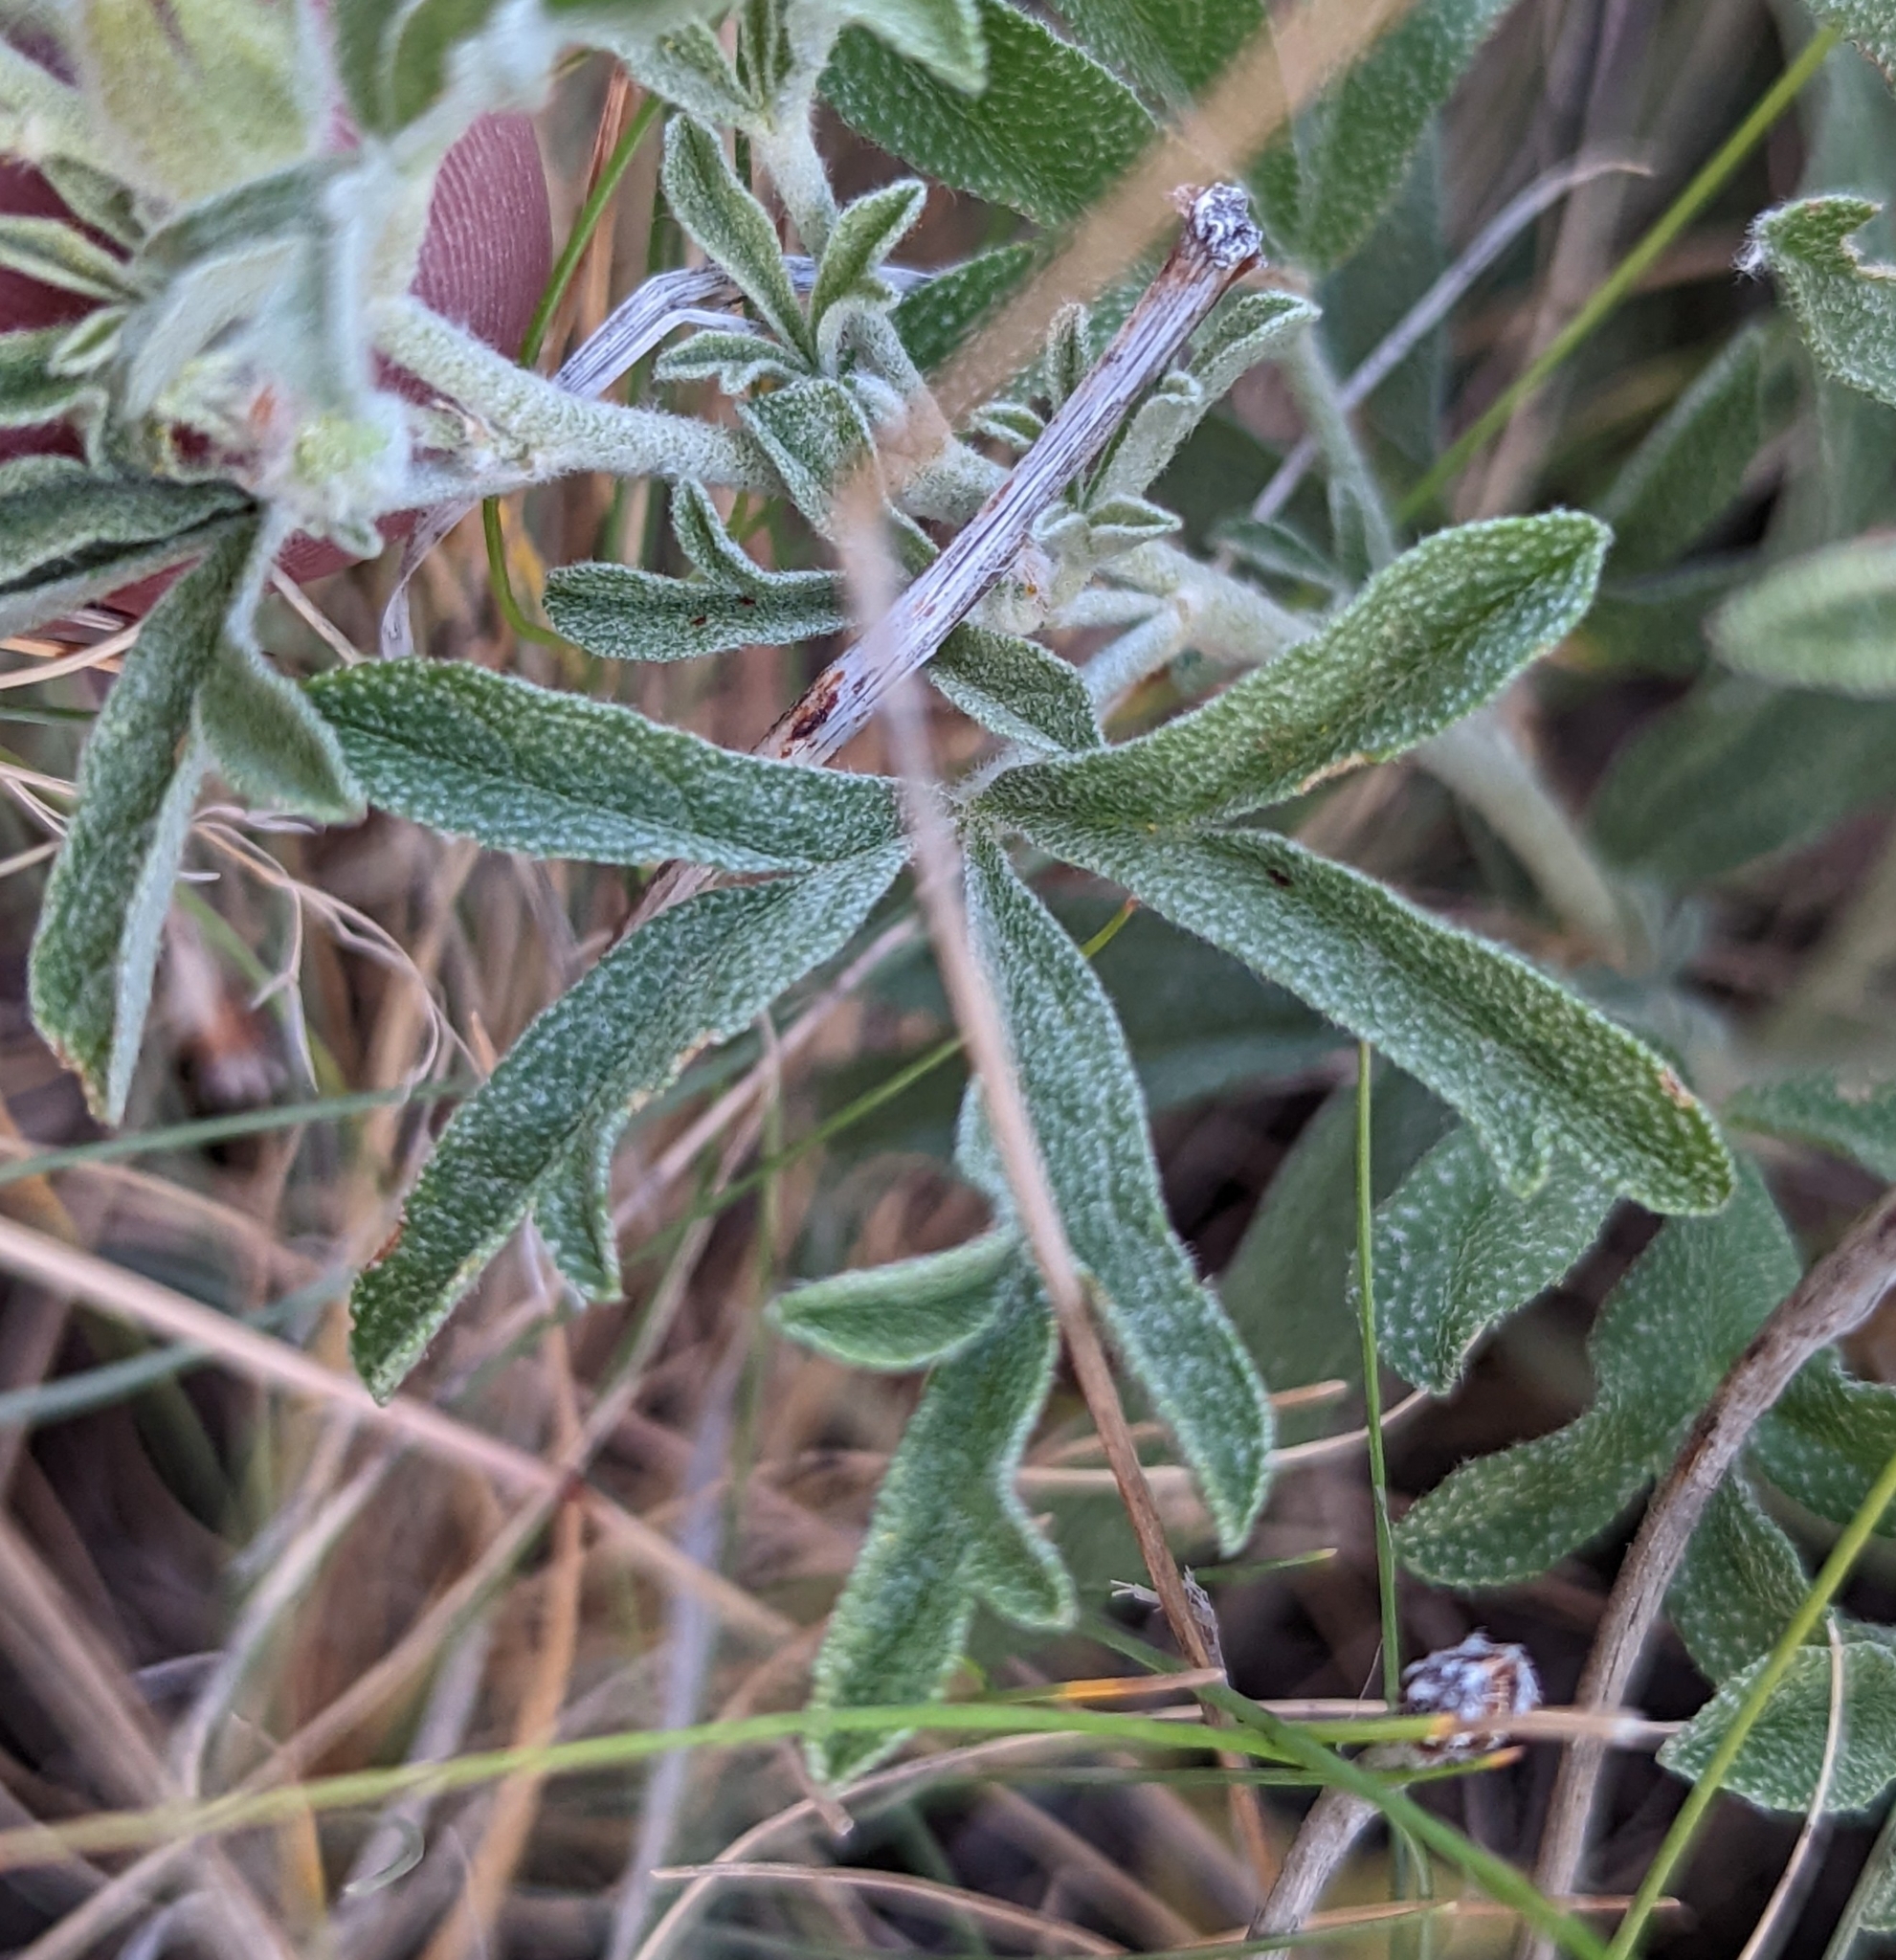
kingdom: Plantae
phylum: Tracheophyta
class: Magnoliopsida
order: Malvales
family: Malvaceae
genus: Sphaeralcea
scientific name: Sphaeralcea coccinea
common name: Moss-rose
